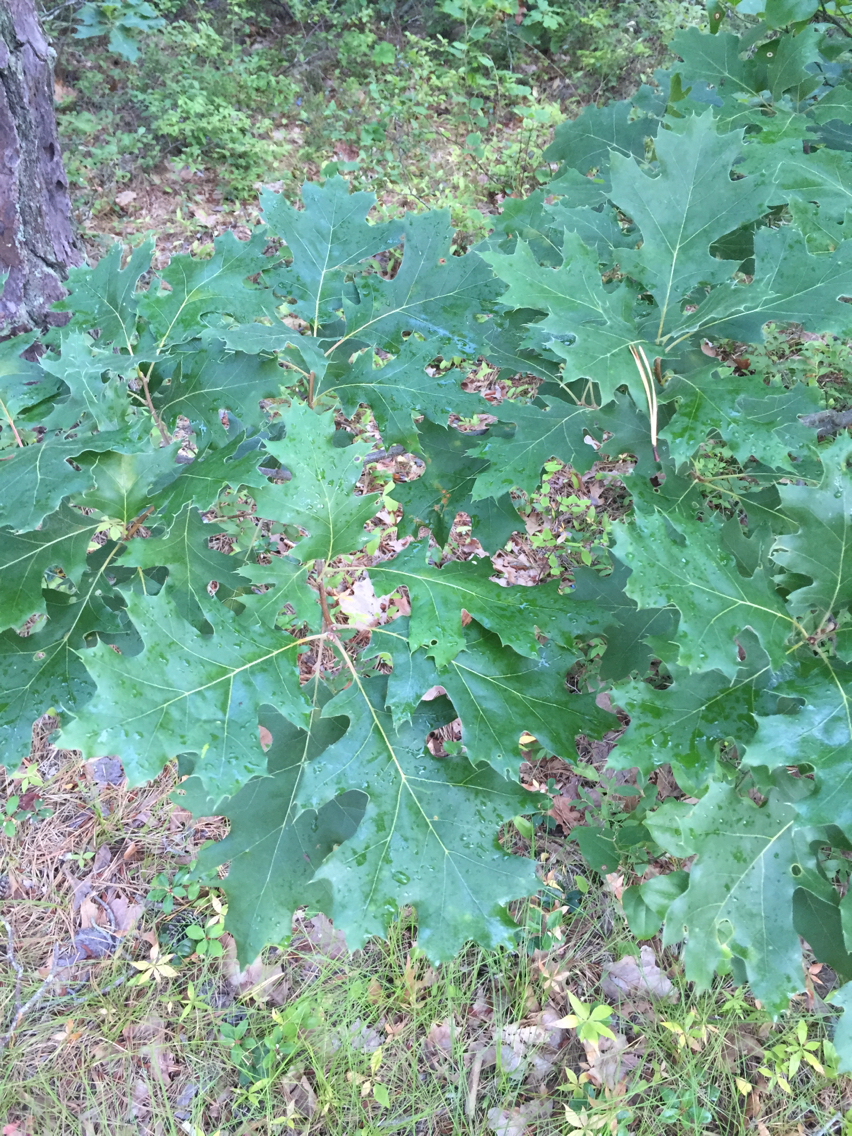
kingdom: Plantae
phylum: Tracheophyta
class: Magnoliopsida
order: Fagales
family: Fagaceae
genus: Quercus
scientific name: Quercus velutina
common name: Black oak
